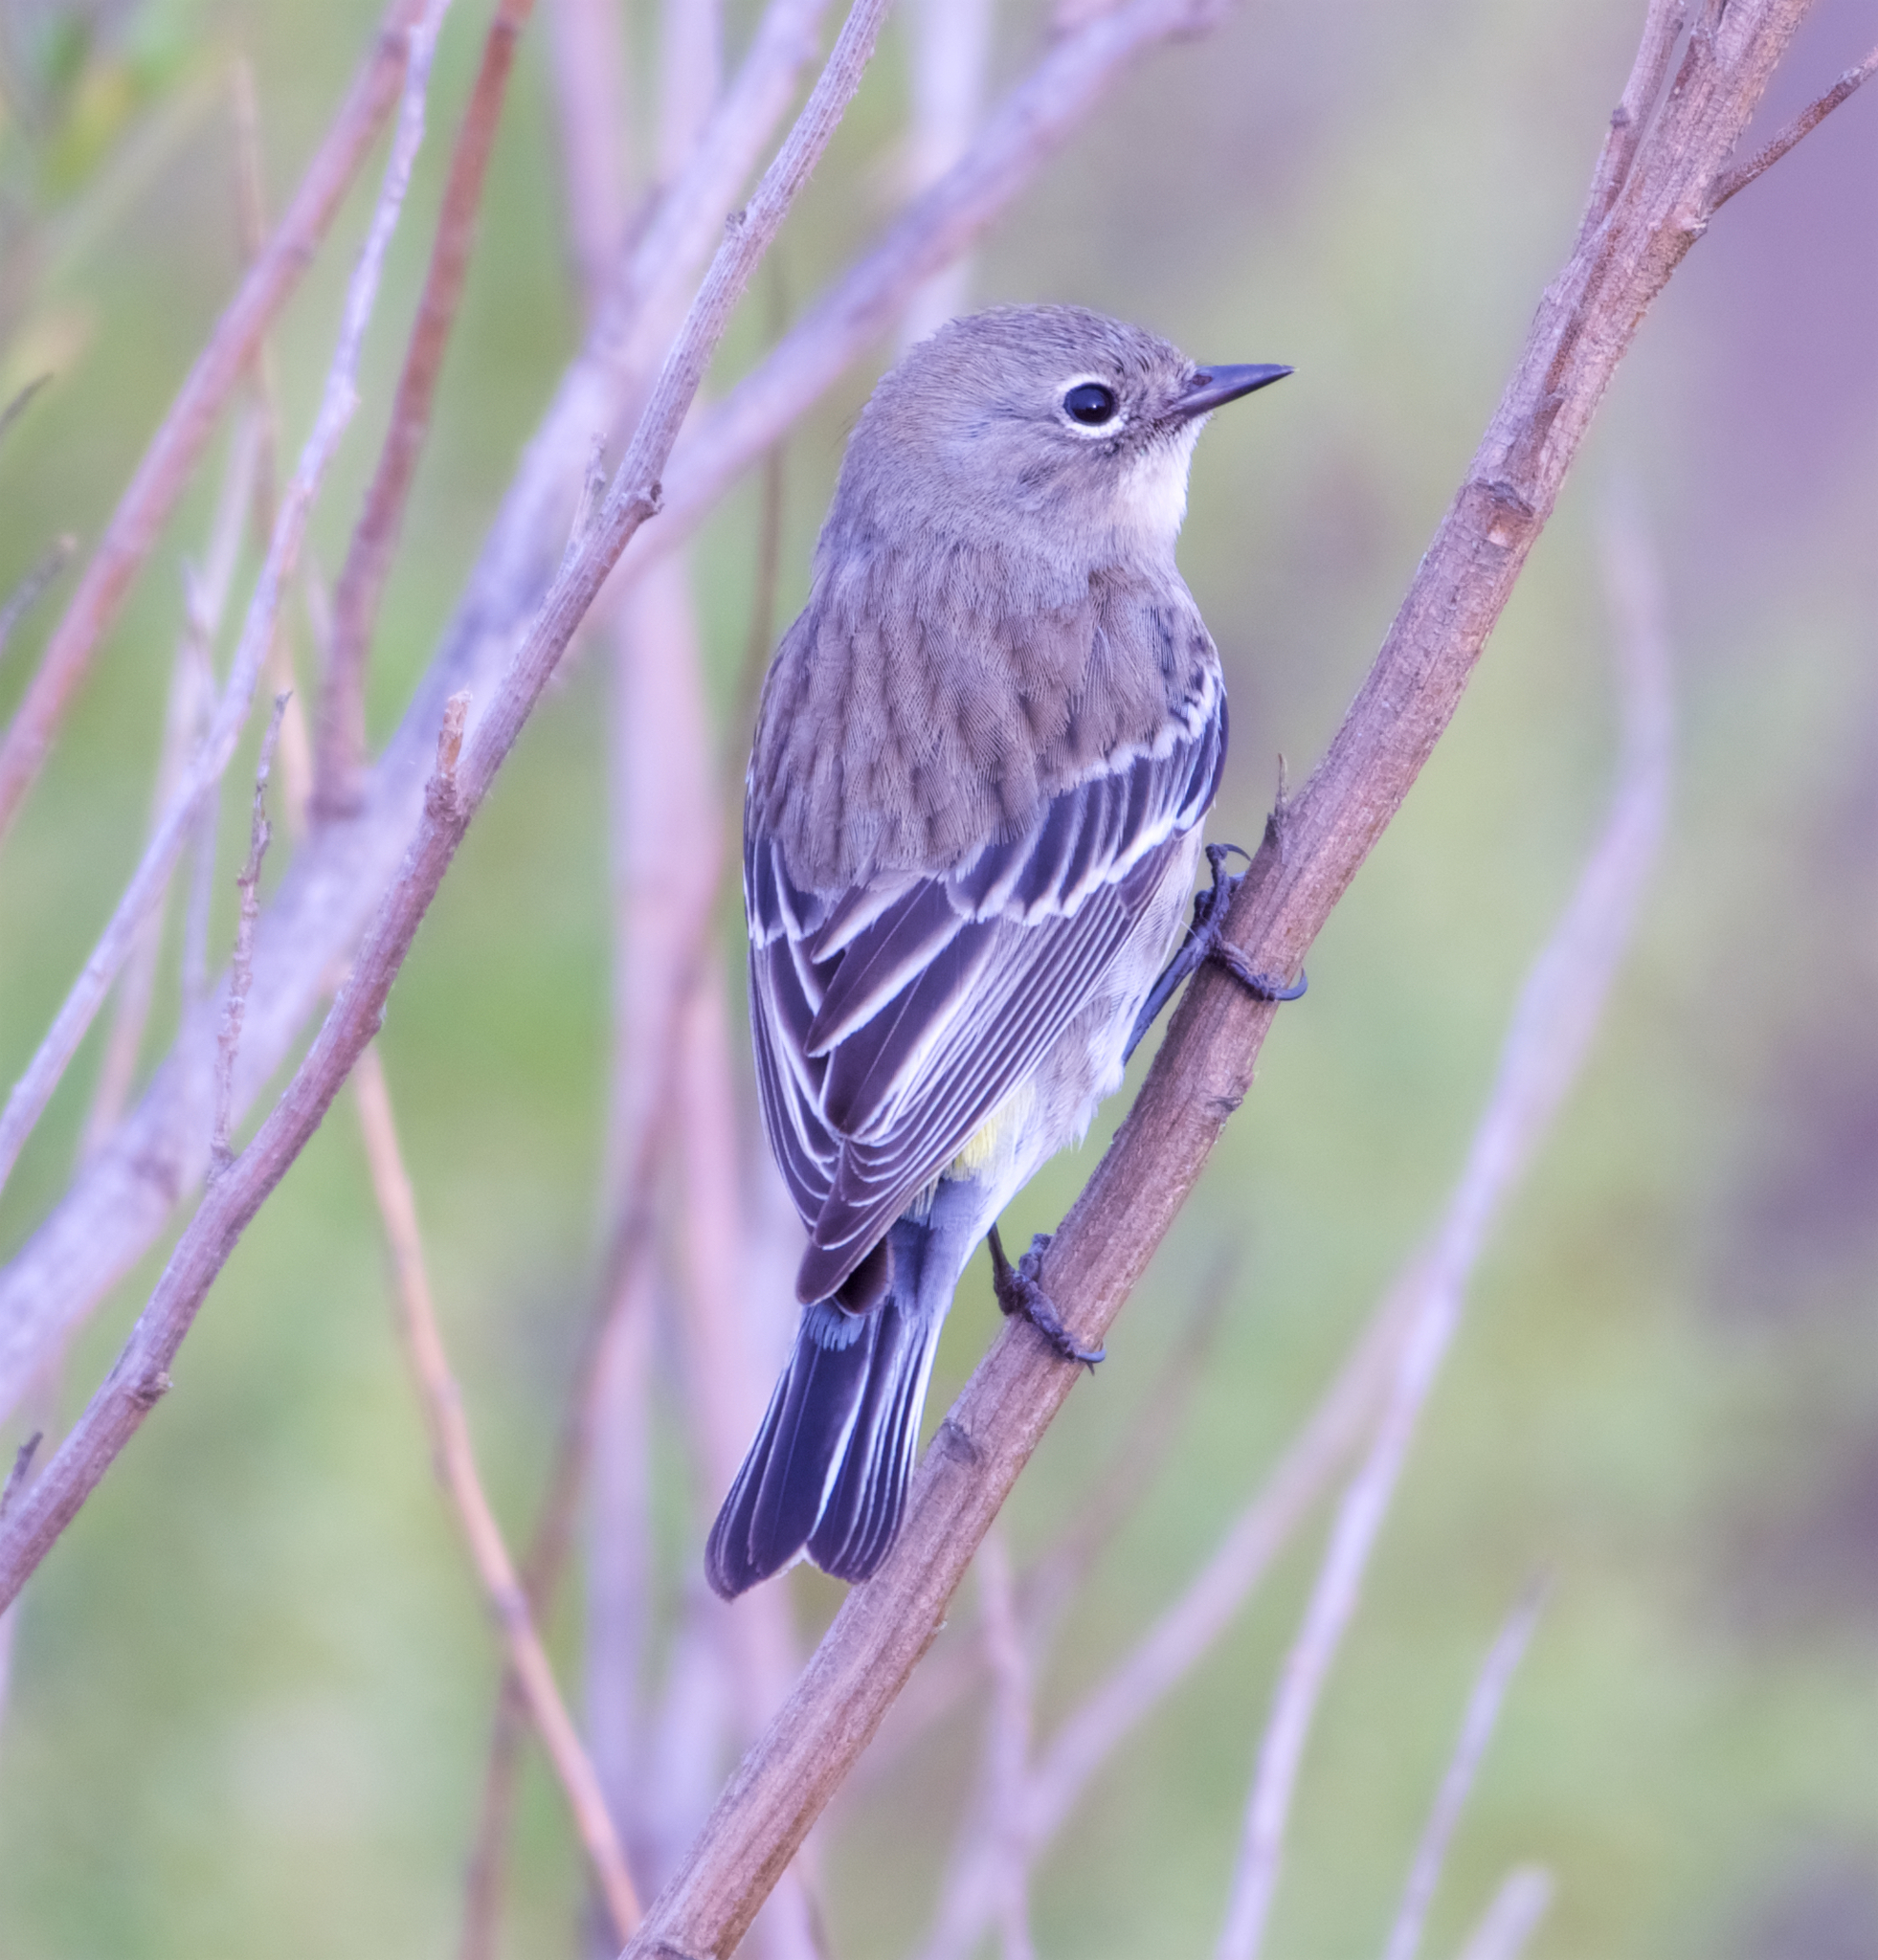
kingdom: Animalia
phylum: Chordata
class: Aves
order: Passeriformes
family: Parulidae
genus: Setophaga
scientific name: Setophaga coronata
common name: Myrtle warbler
